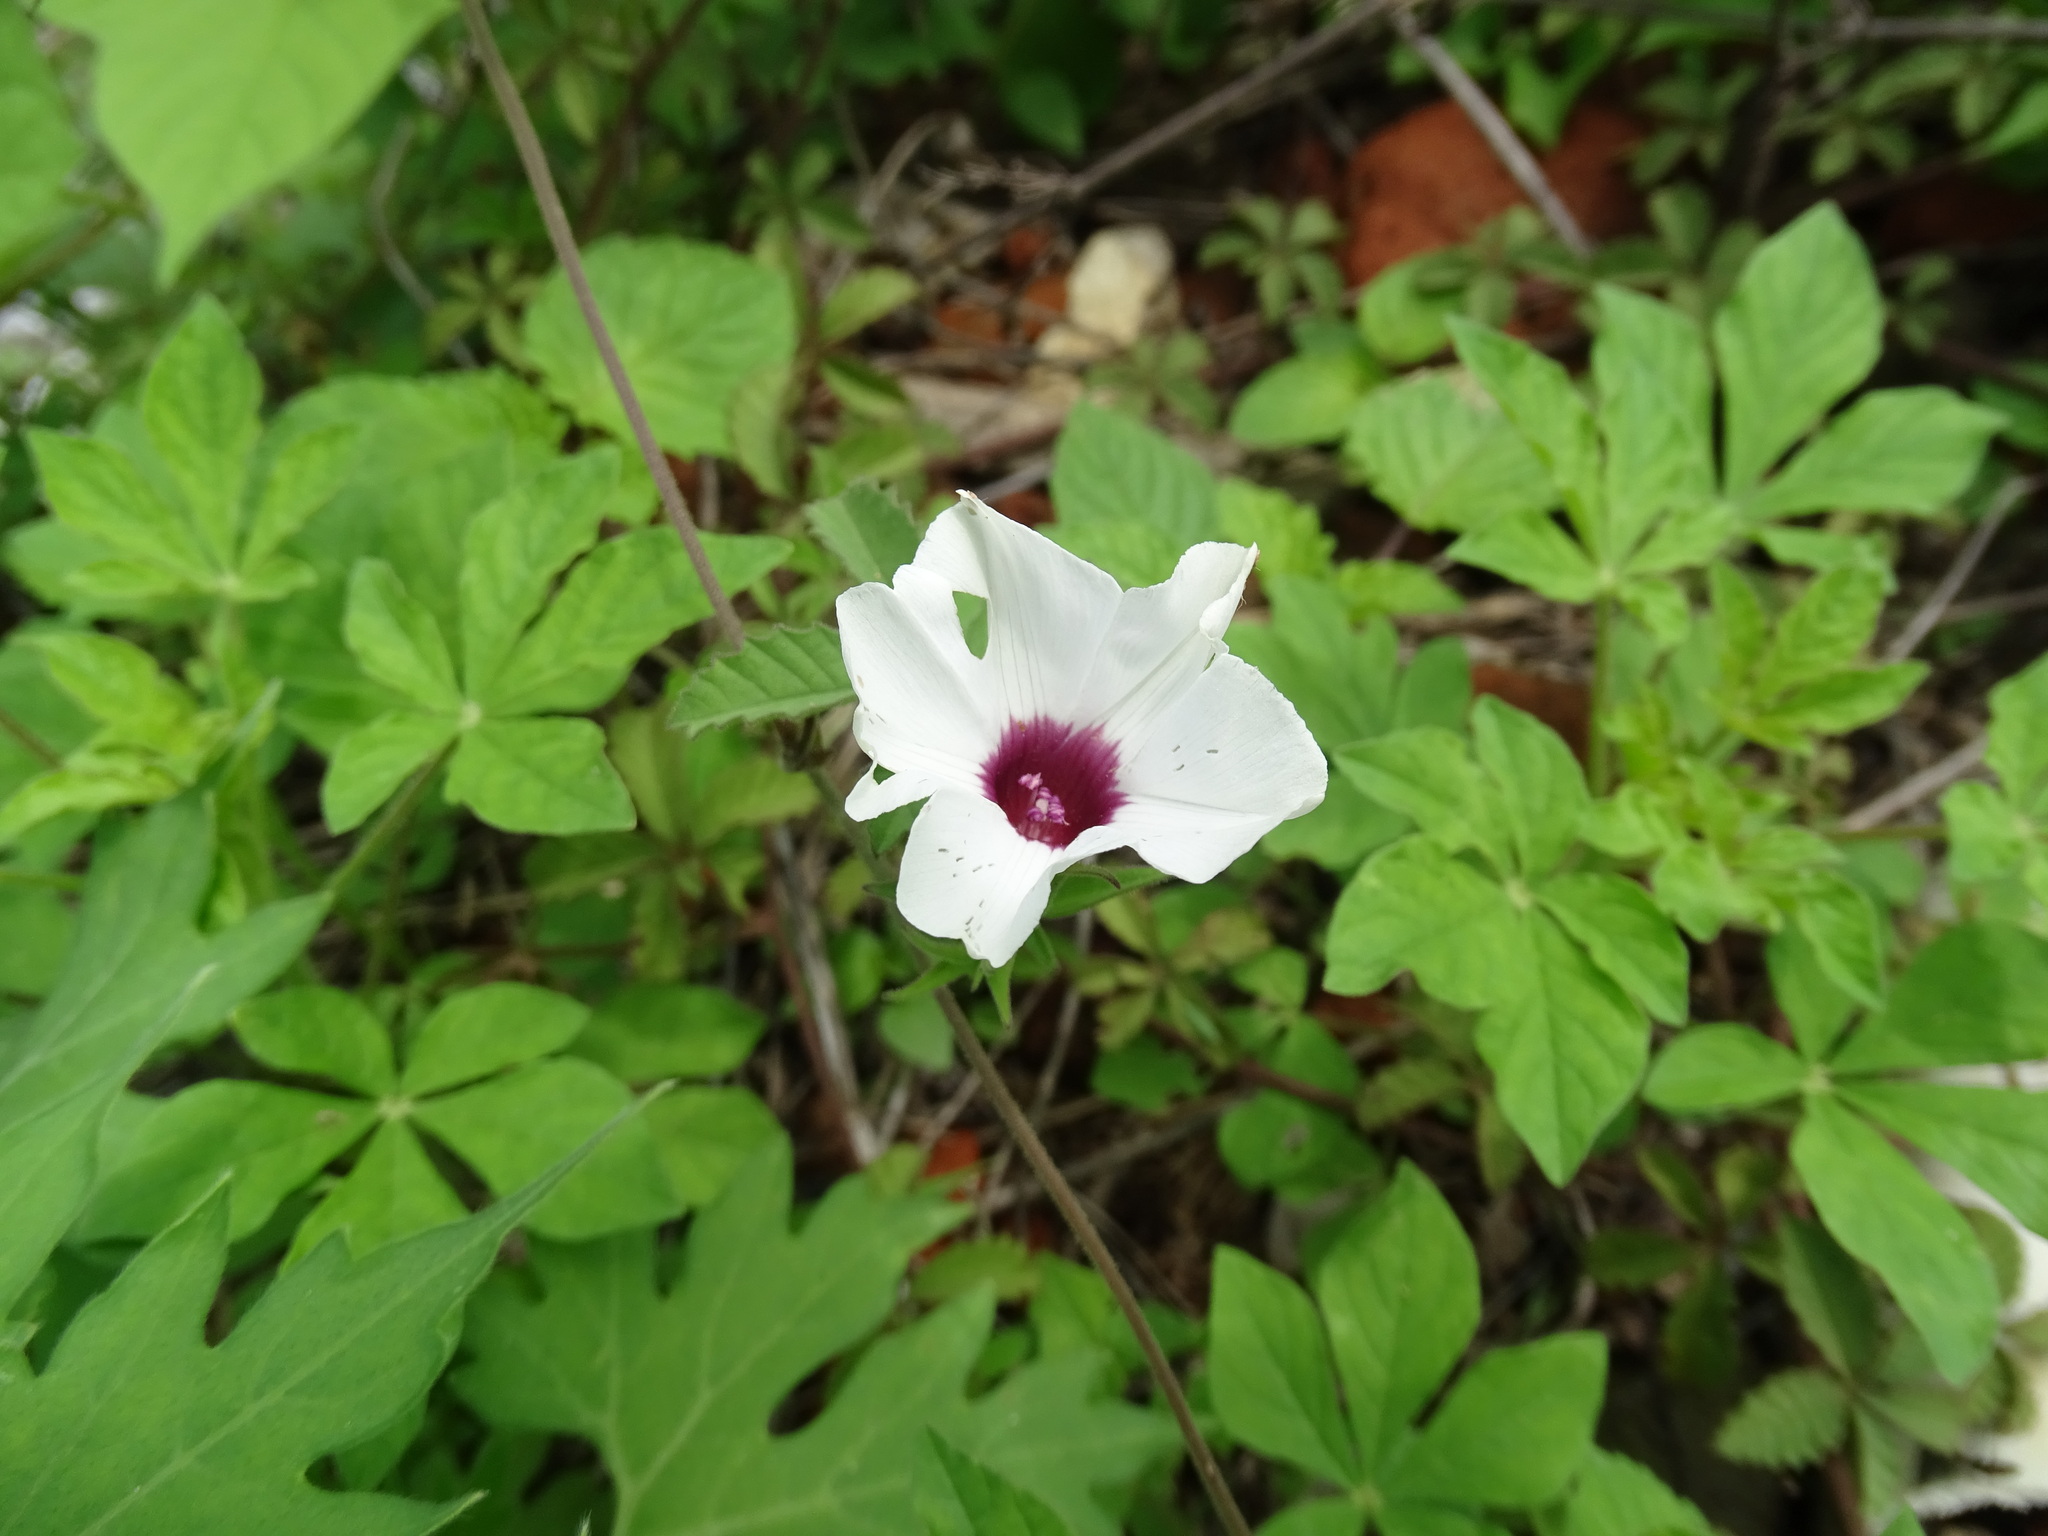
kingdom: Plantae
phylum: Tracheophyta
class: Magnoliopsida
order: Solanales
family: Convolvulaceae
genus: Distimake
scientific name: Distimake lobulibracteatus
